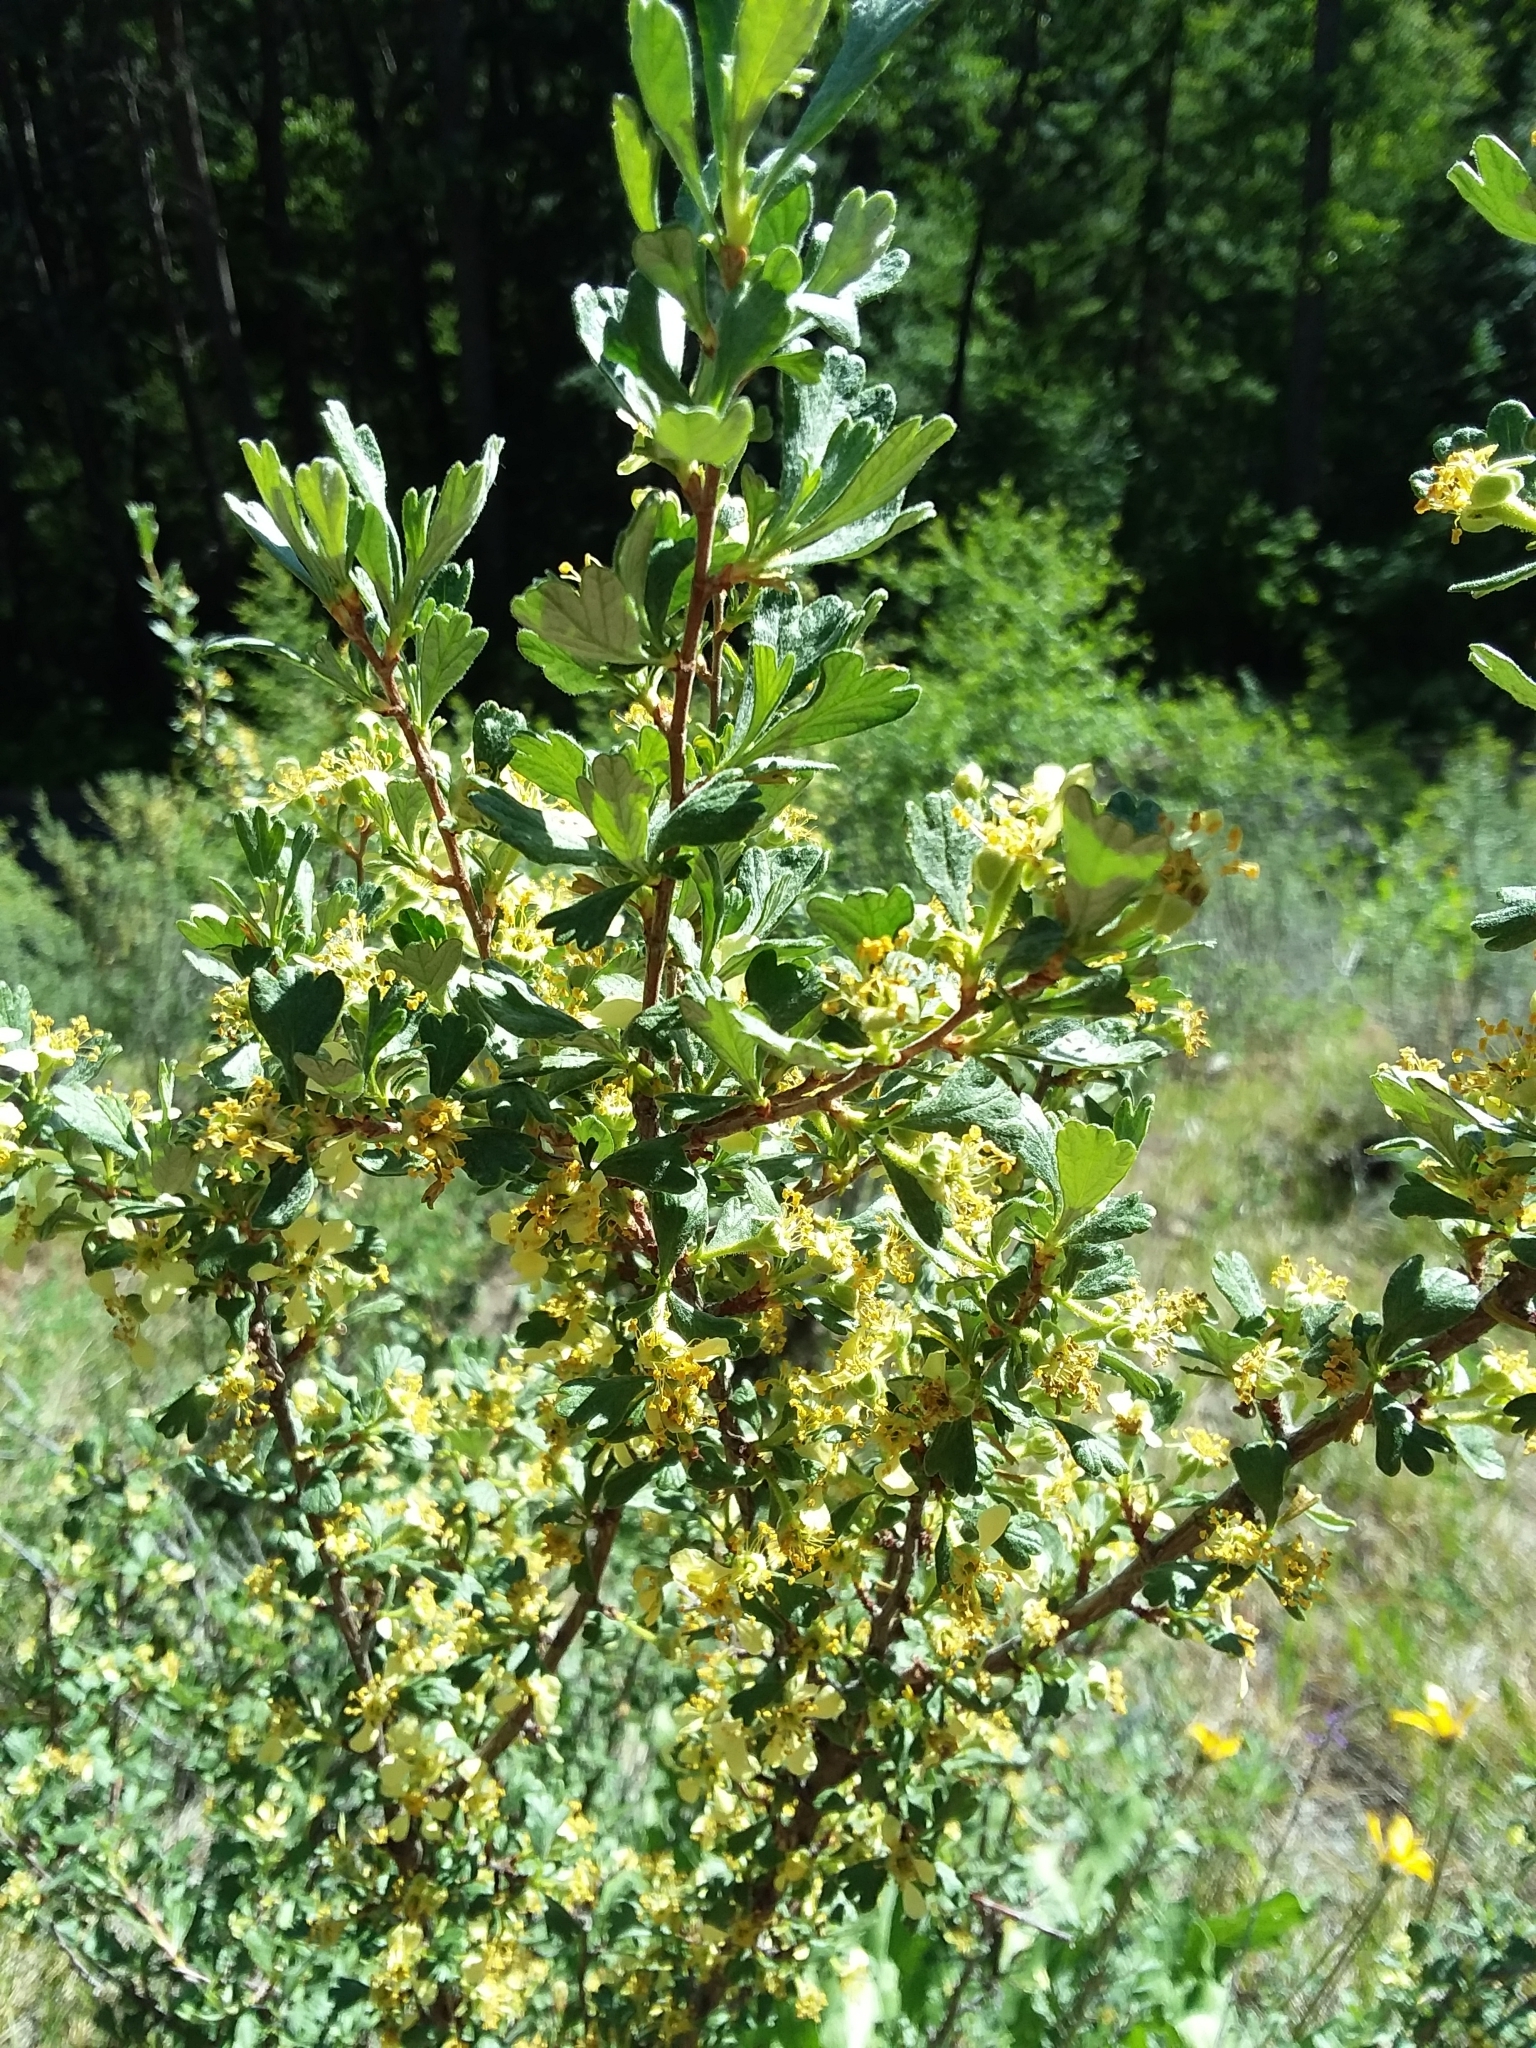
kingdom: Plantae
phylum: Tracheophyta
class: Magnoliopsida
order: Rosales
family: Rosaceae
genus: Purshia
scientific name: Purshia tridentata
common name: Antelope bitterbrush
